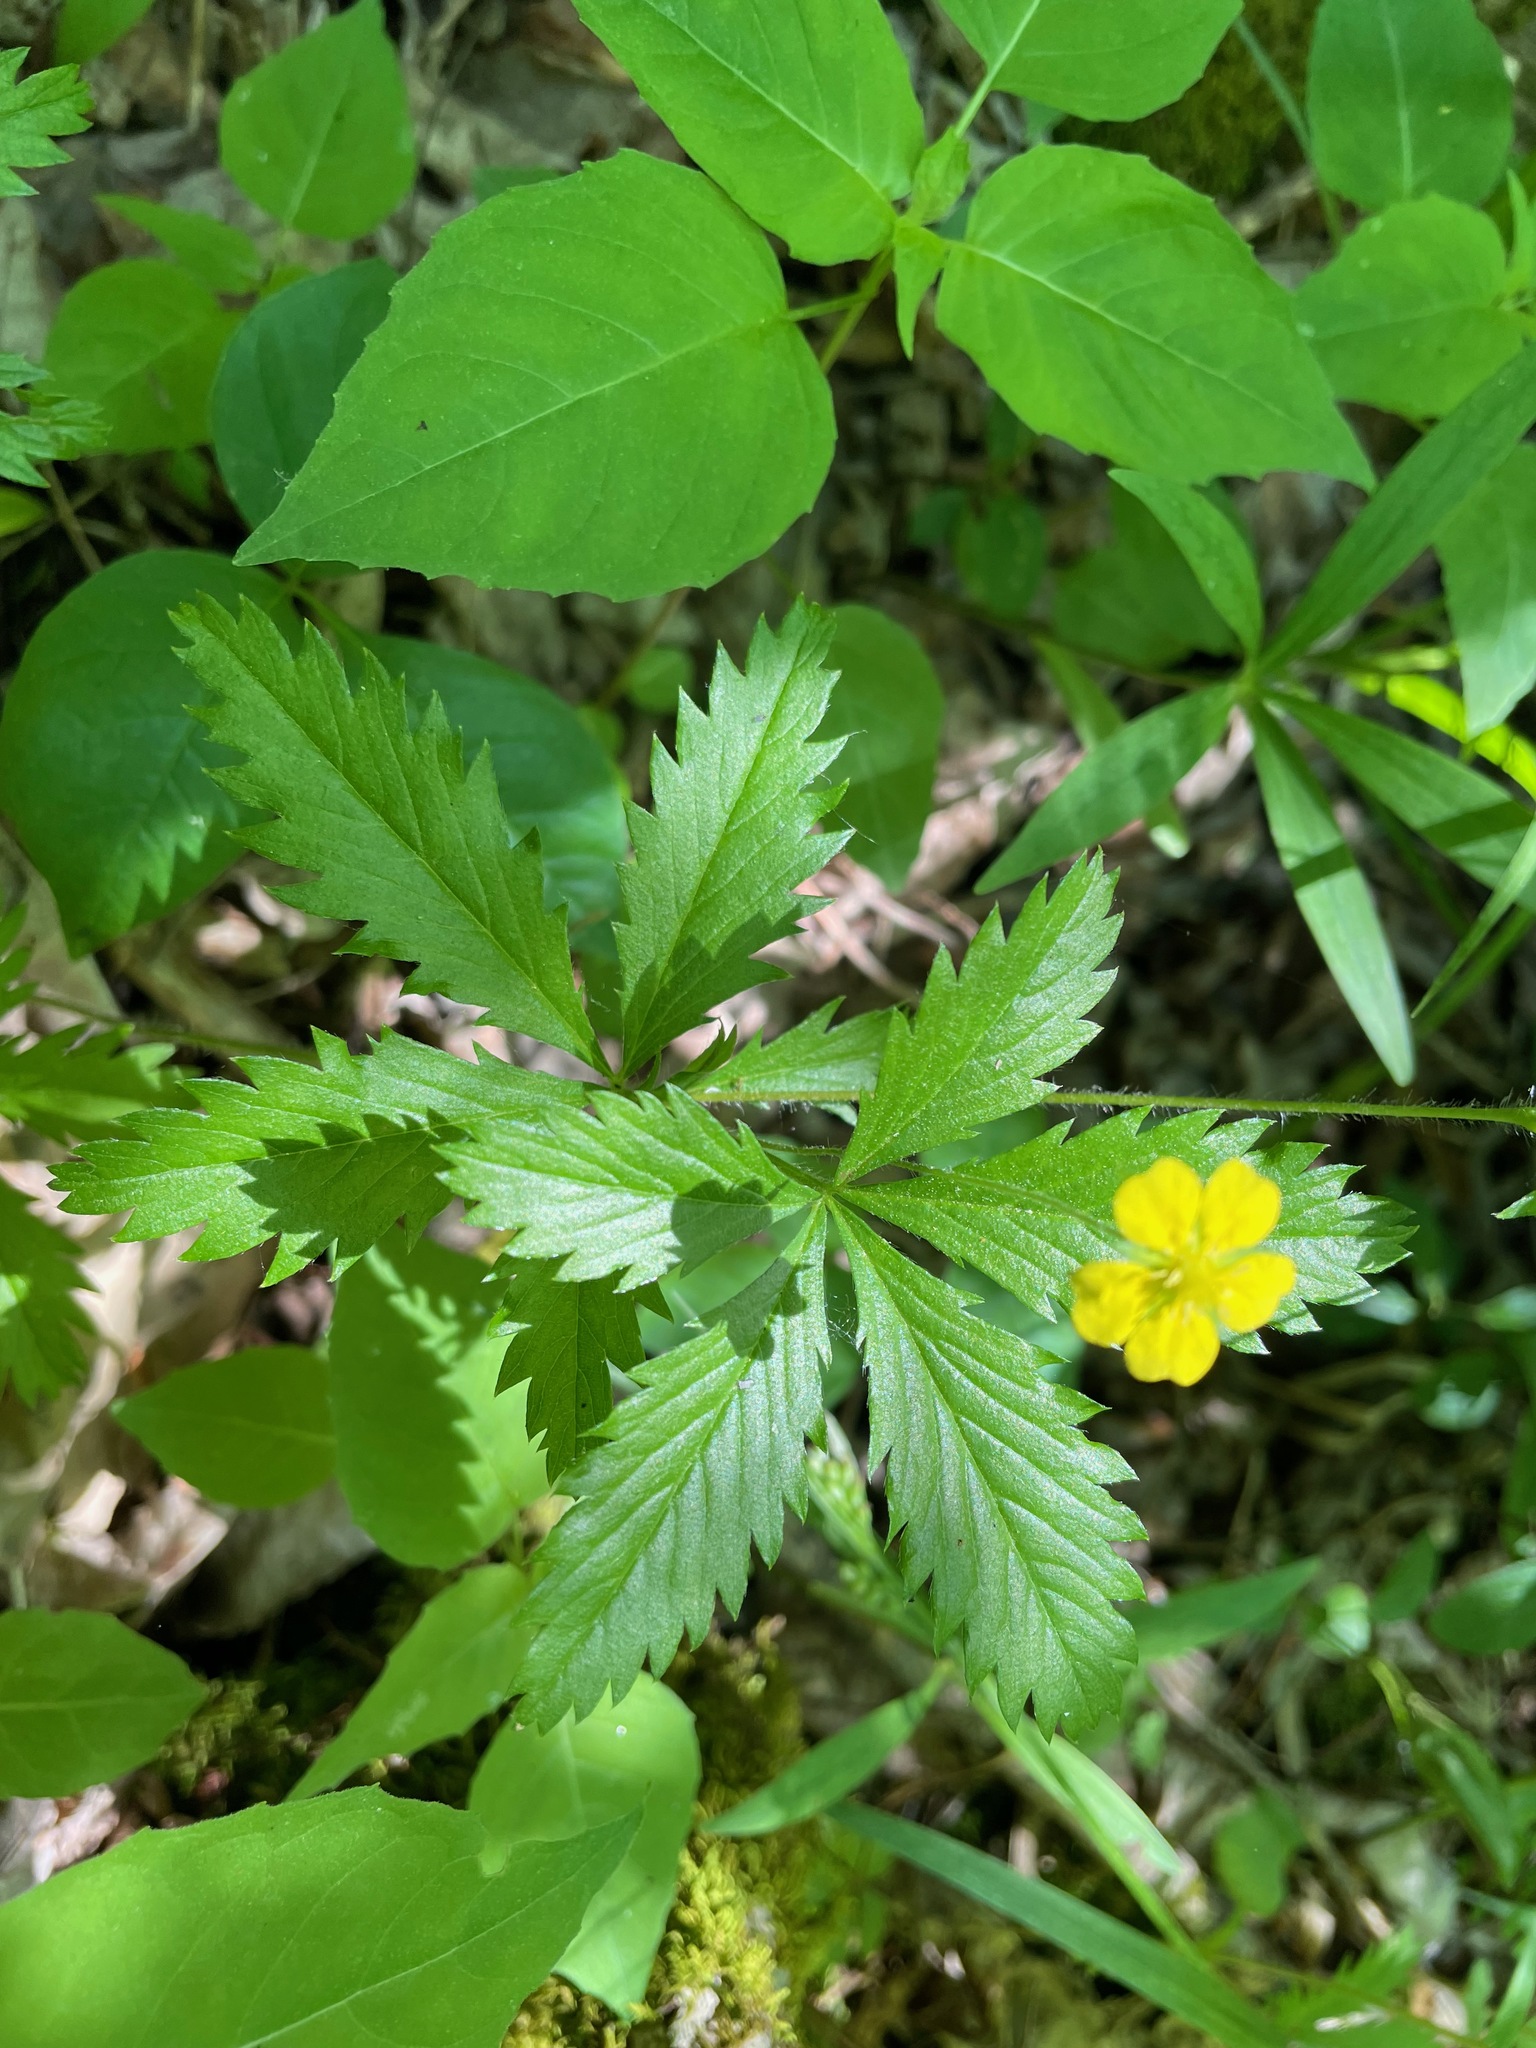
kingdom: Plantae
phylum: Tracheophyta
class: Magnoliopsida
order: Rosales
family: Rosaceae
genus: Potentilla
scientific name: Potentilla simplex
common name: Old field cinquefoil
